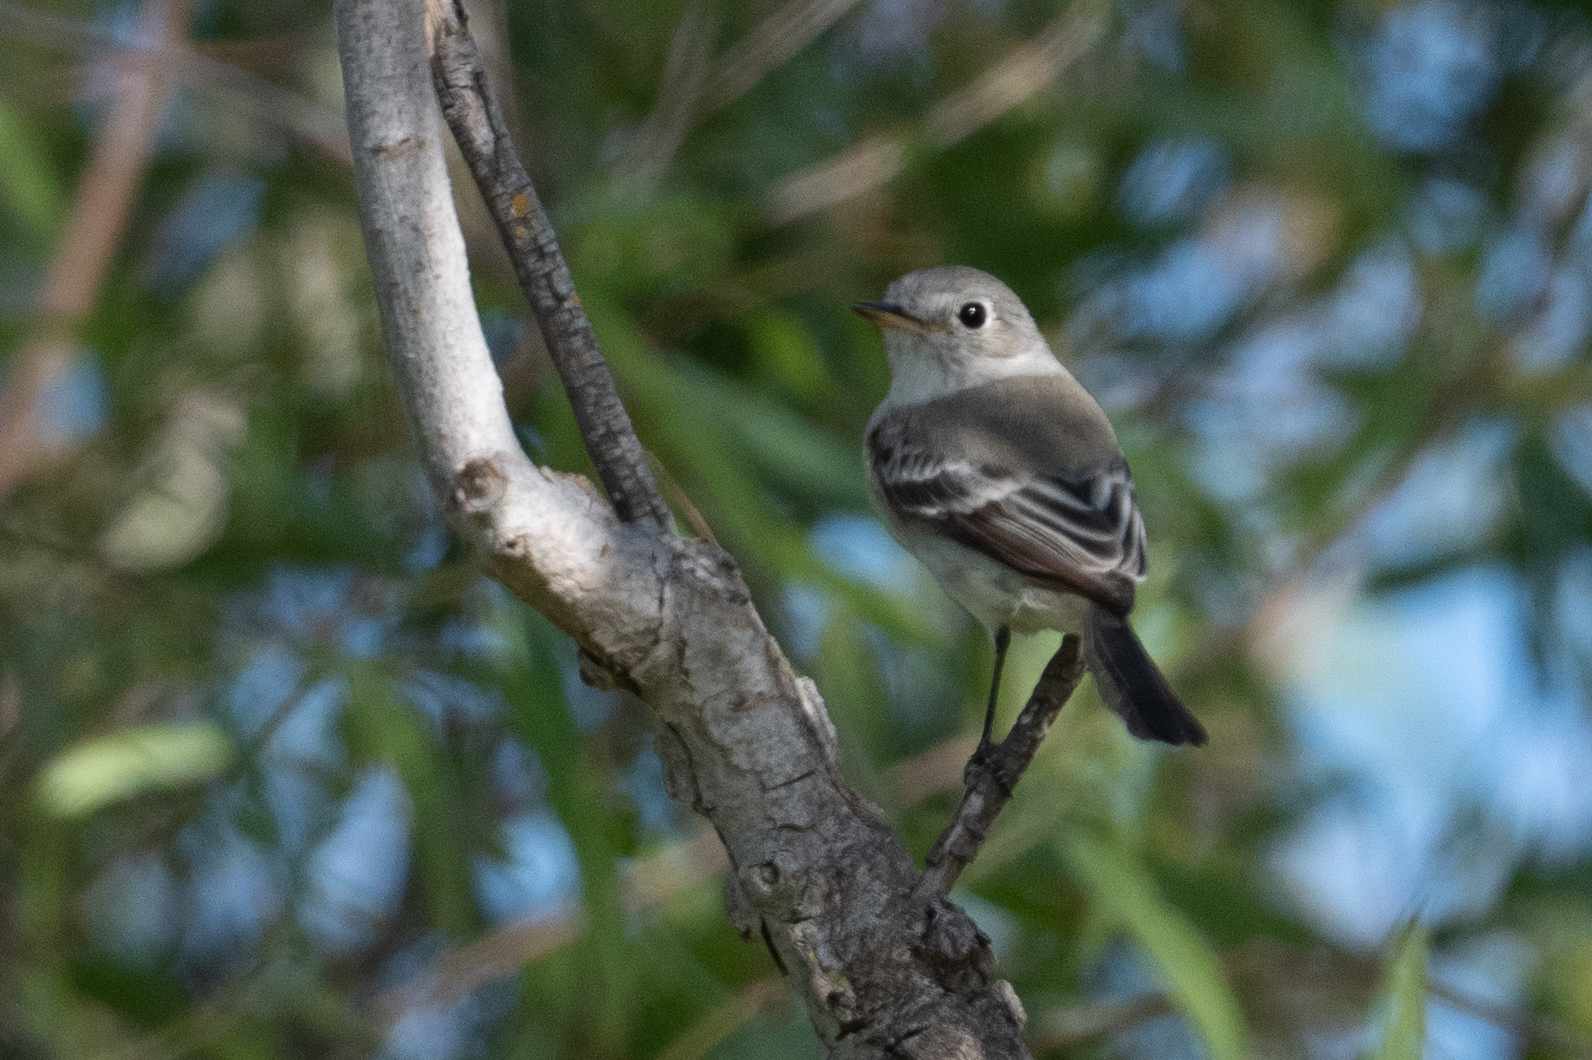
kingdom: Animalia
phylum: Chordata
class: Aves
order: Passeriformes
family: Tyrannidae
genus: Empidonax
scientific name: Empidonax wrightii
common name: Gray flycatcher
